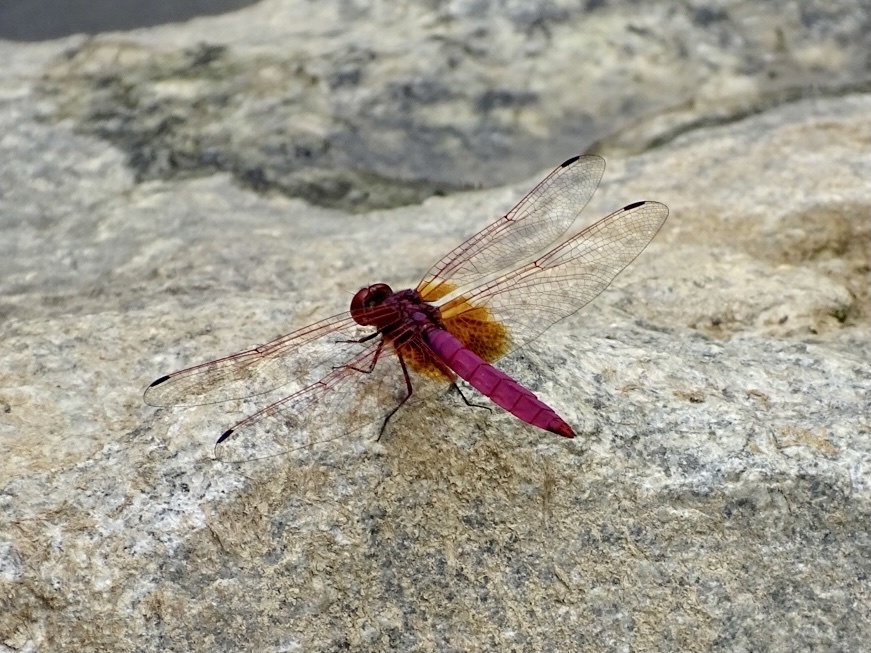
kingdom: Animalia
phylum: Arthropoda
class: Insecta
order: Odonata
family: Libellulidae
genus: Trithemis
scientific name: Trithemis aurora
